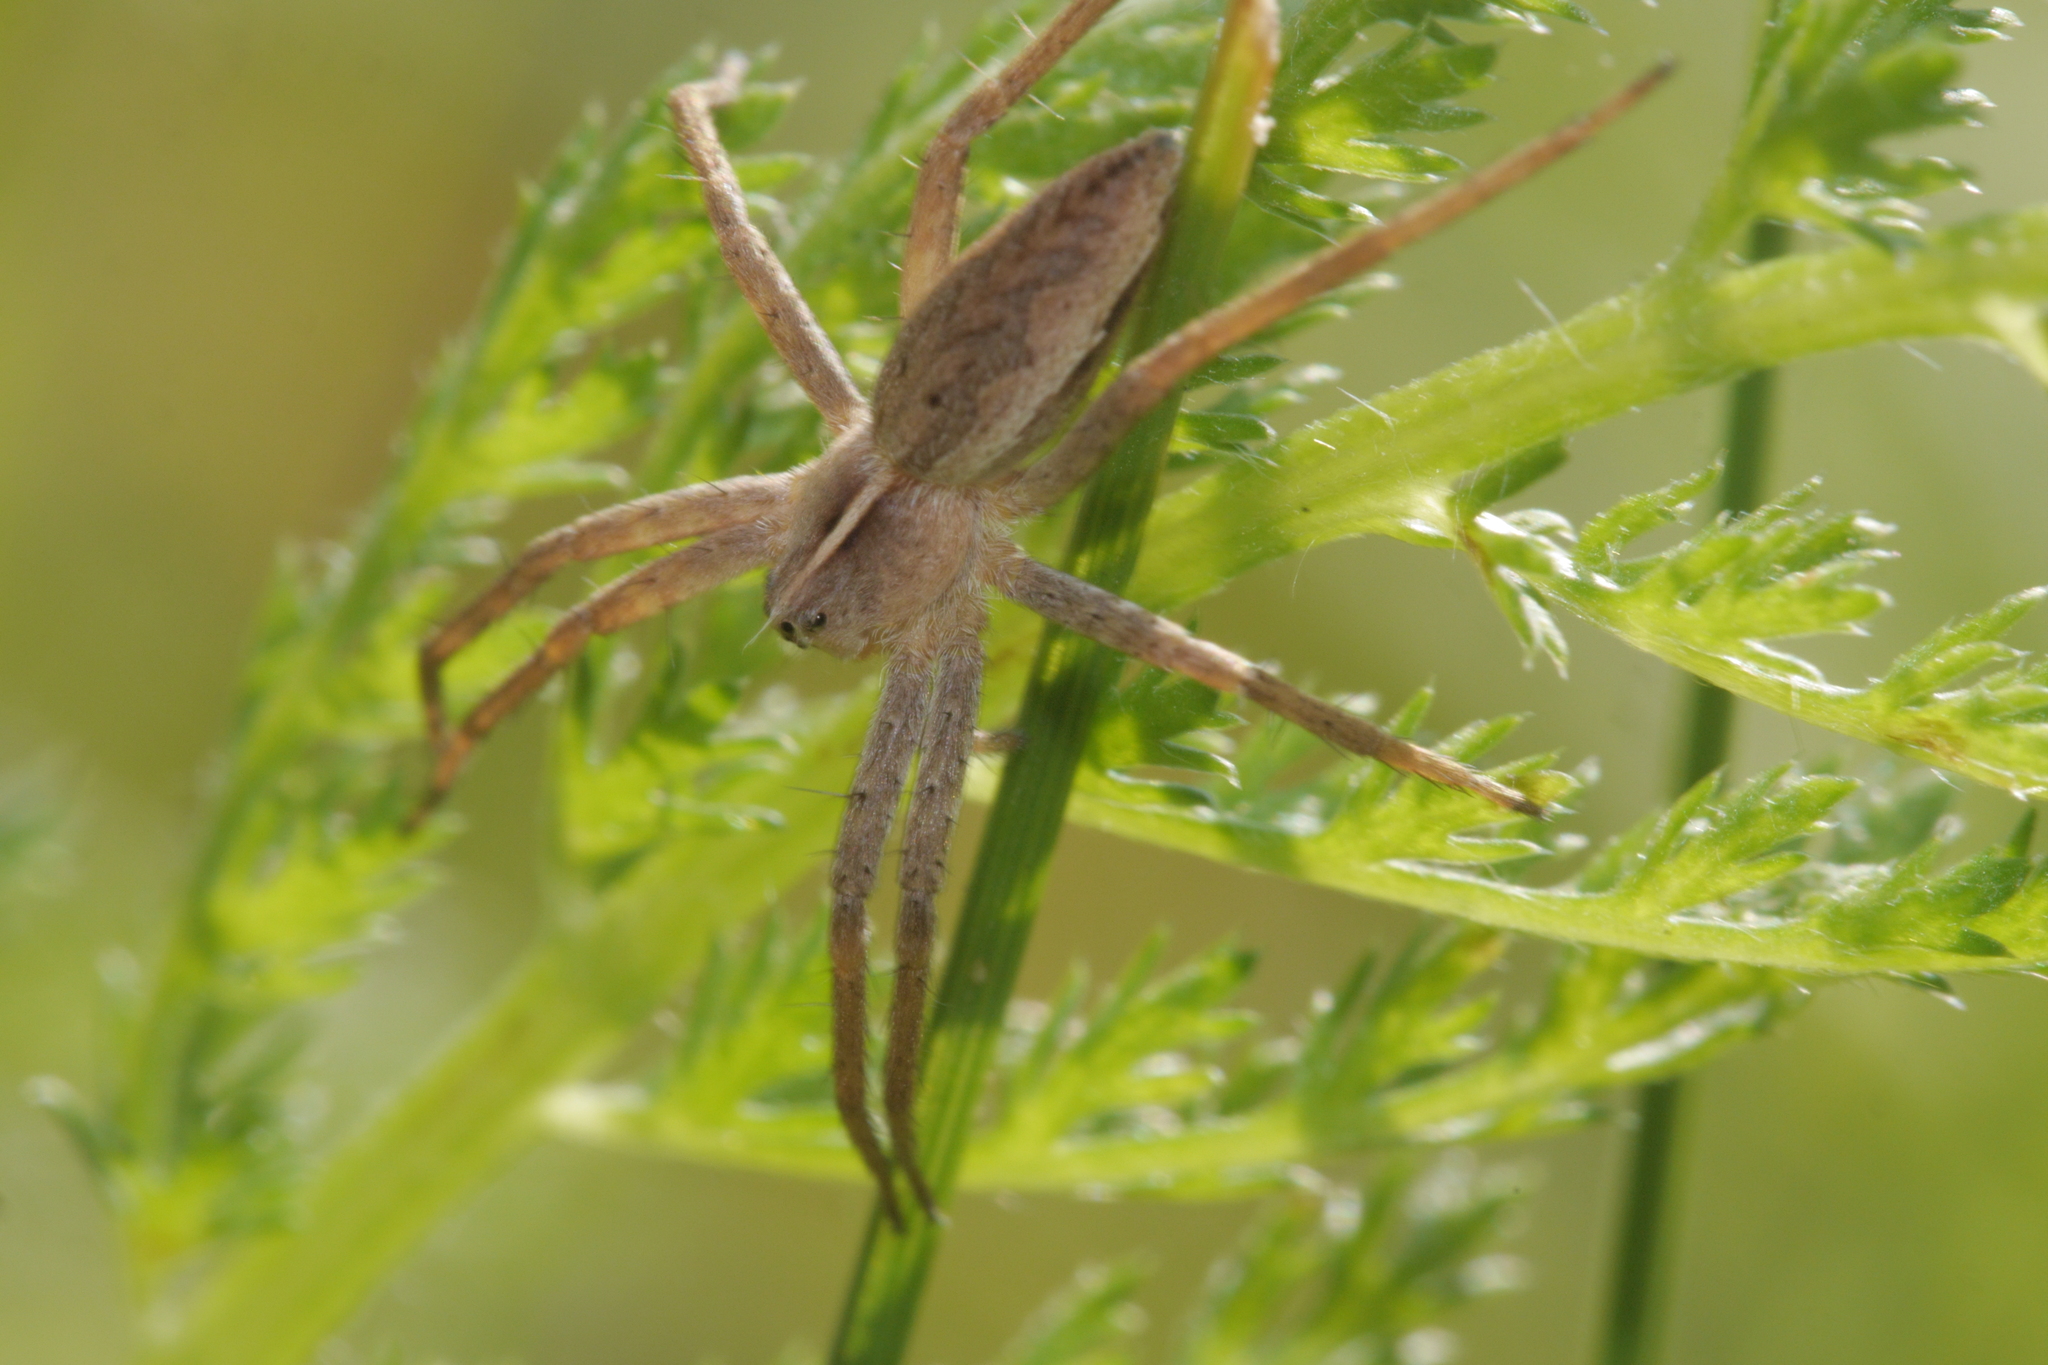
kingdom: Animalia
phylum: Arthropoda
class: Arachnida
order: Araneae
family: Pisauridae
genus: Pisaura
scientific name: Pisaura mirabilis
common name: Tent spider
